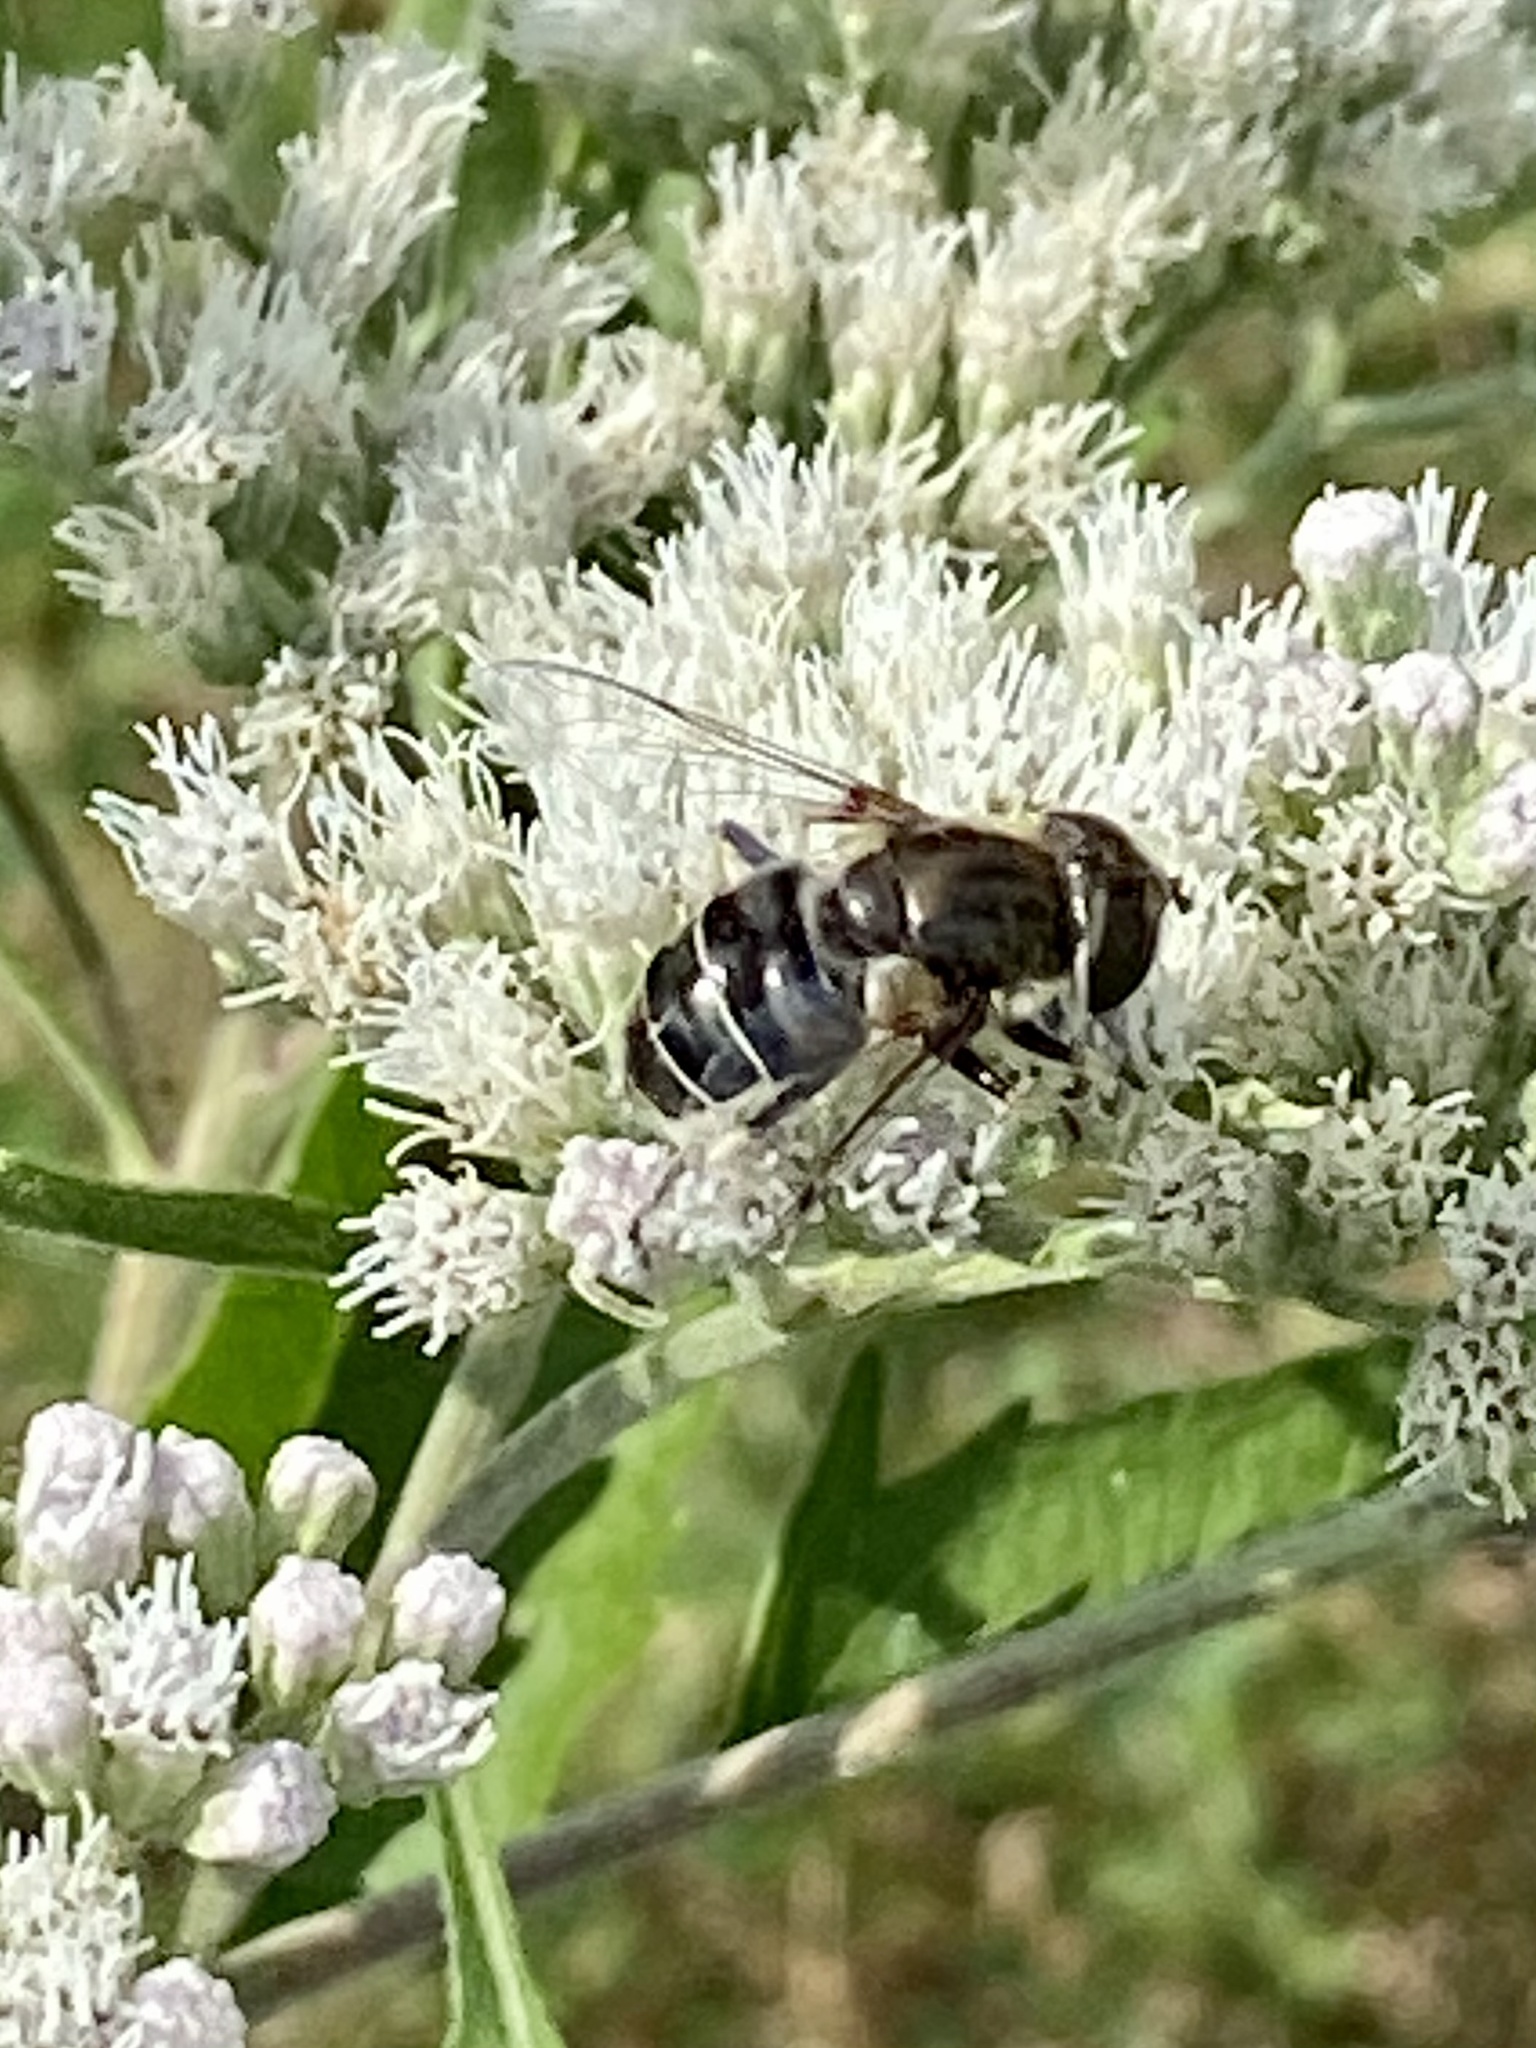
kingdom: Animalia
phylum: Arthropoda
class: Insecta
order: Diptera
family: Syrphidae
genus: Eristalis
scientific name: Eristalis dimidiata
